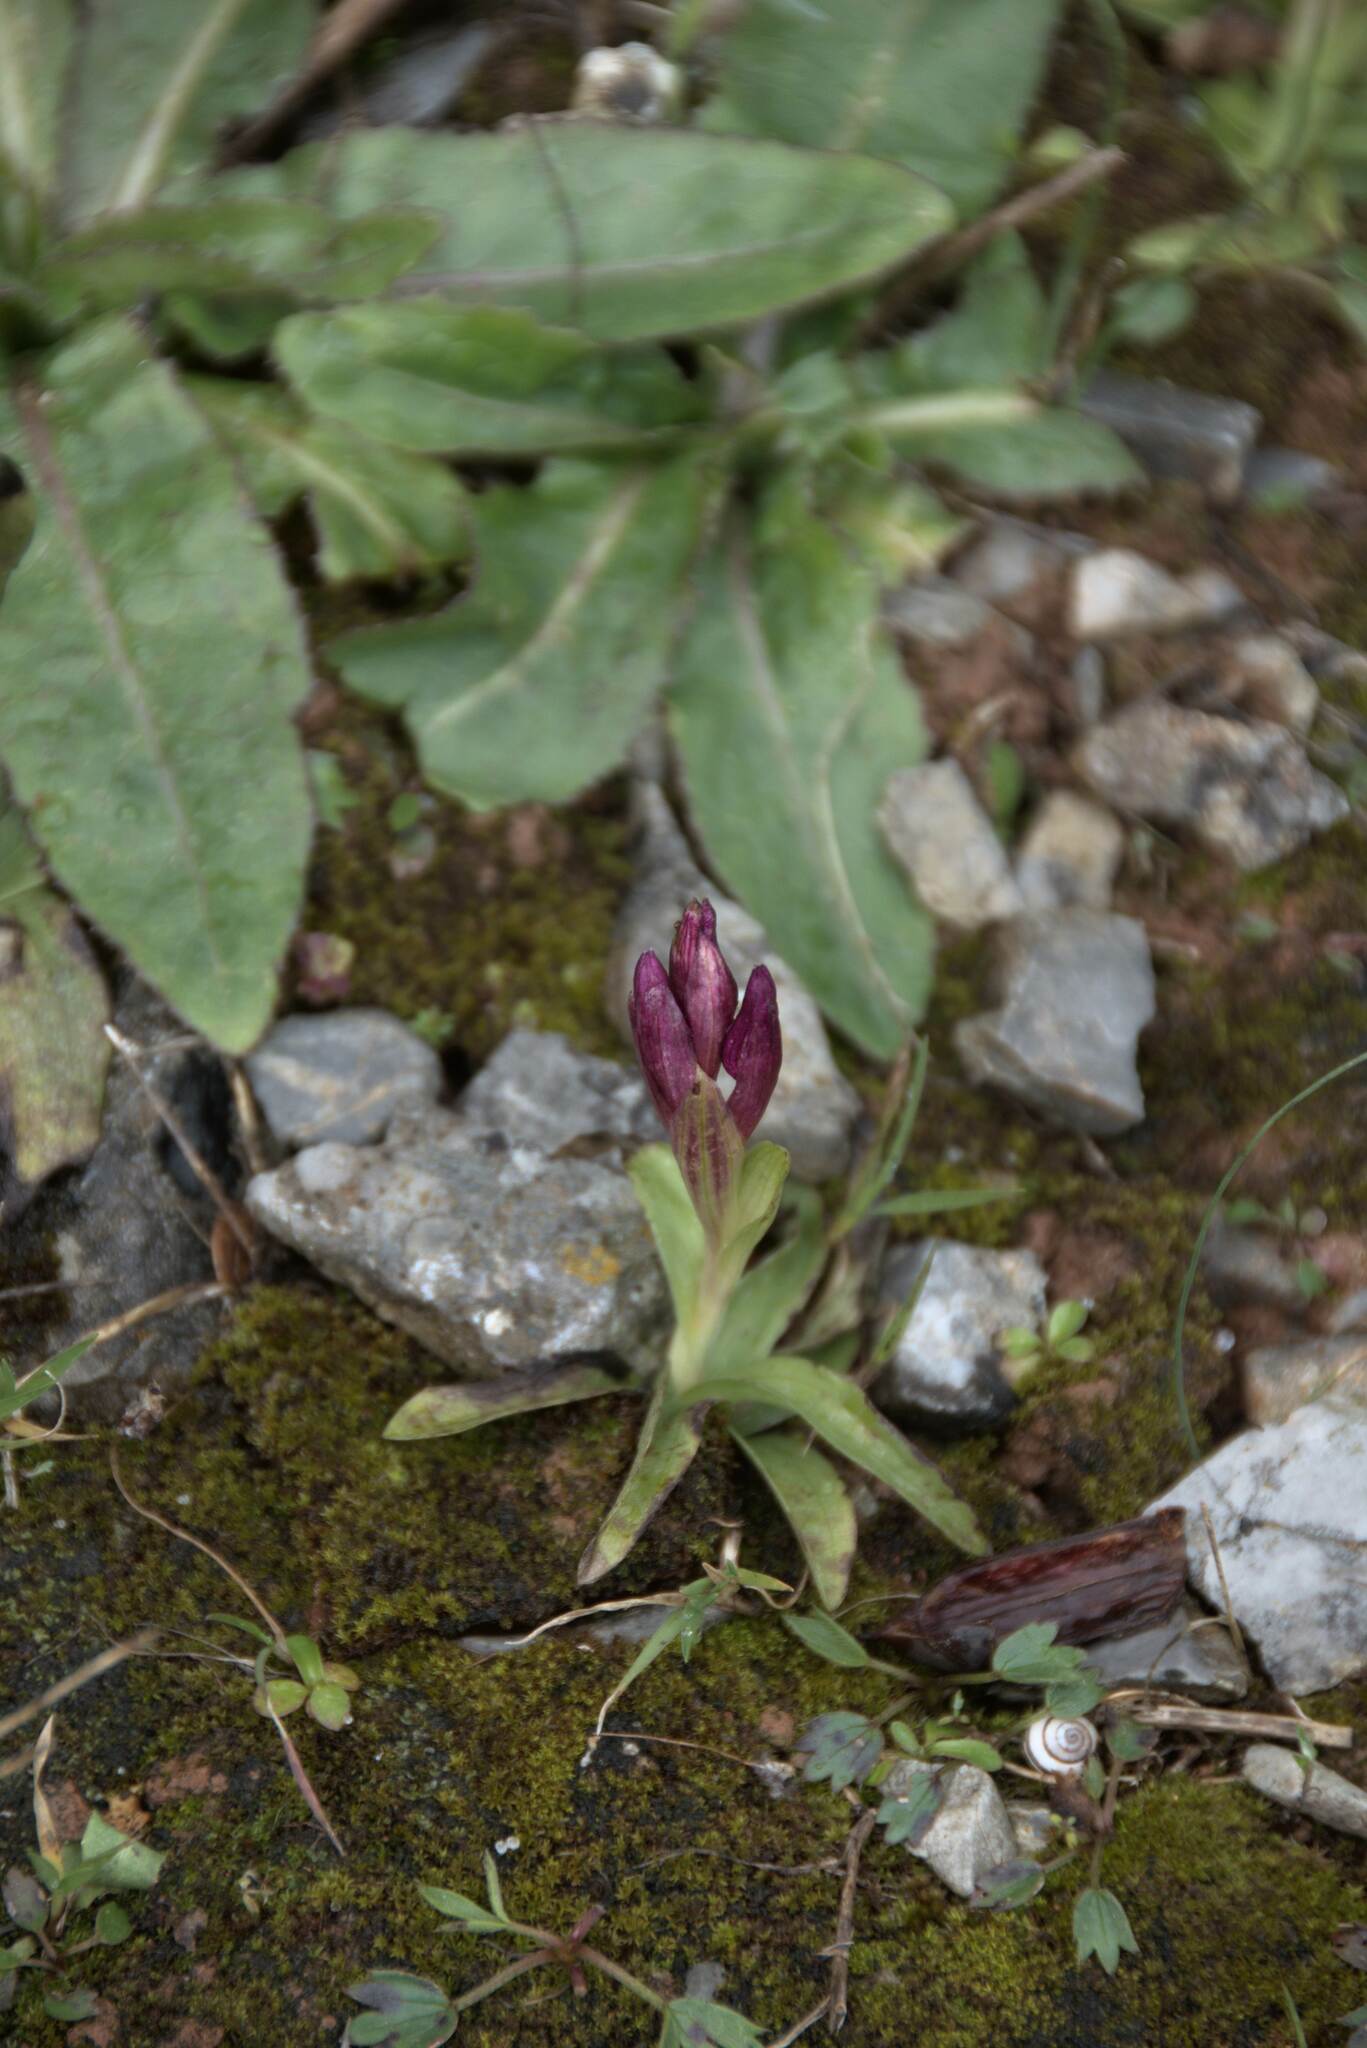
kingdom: Plantae
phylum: Tracheophyta
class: Liliopsida
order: Asparagales
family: Orchidaceae
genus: Anacamptis
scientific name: Anacamptis papilionacea
